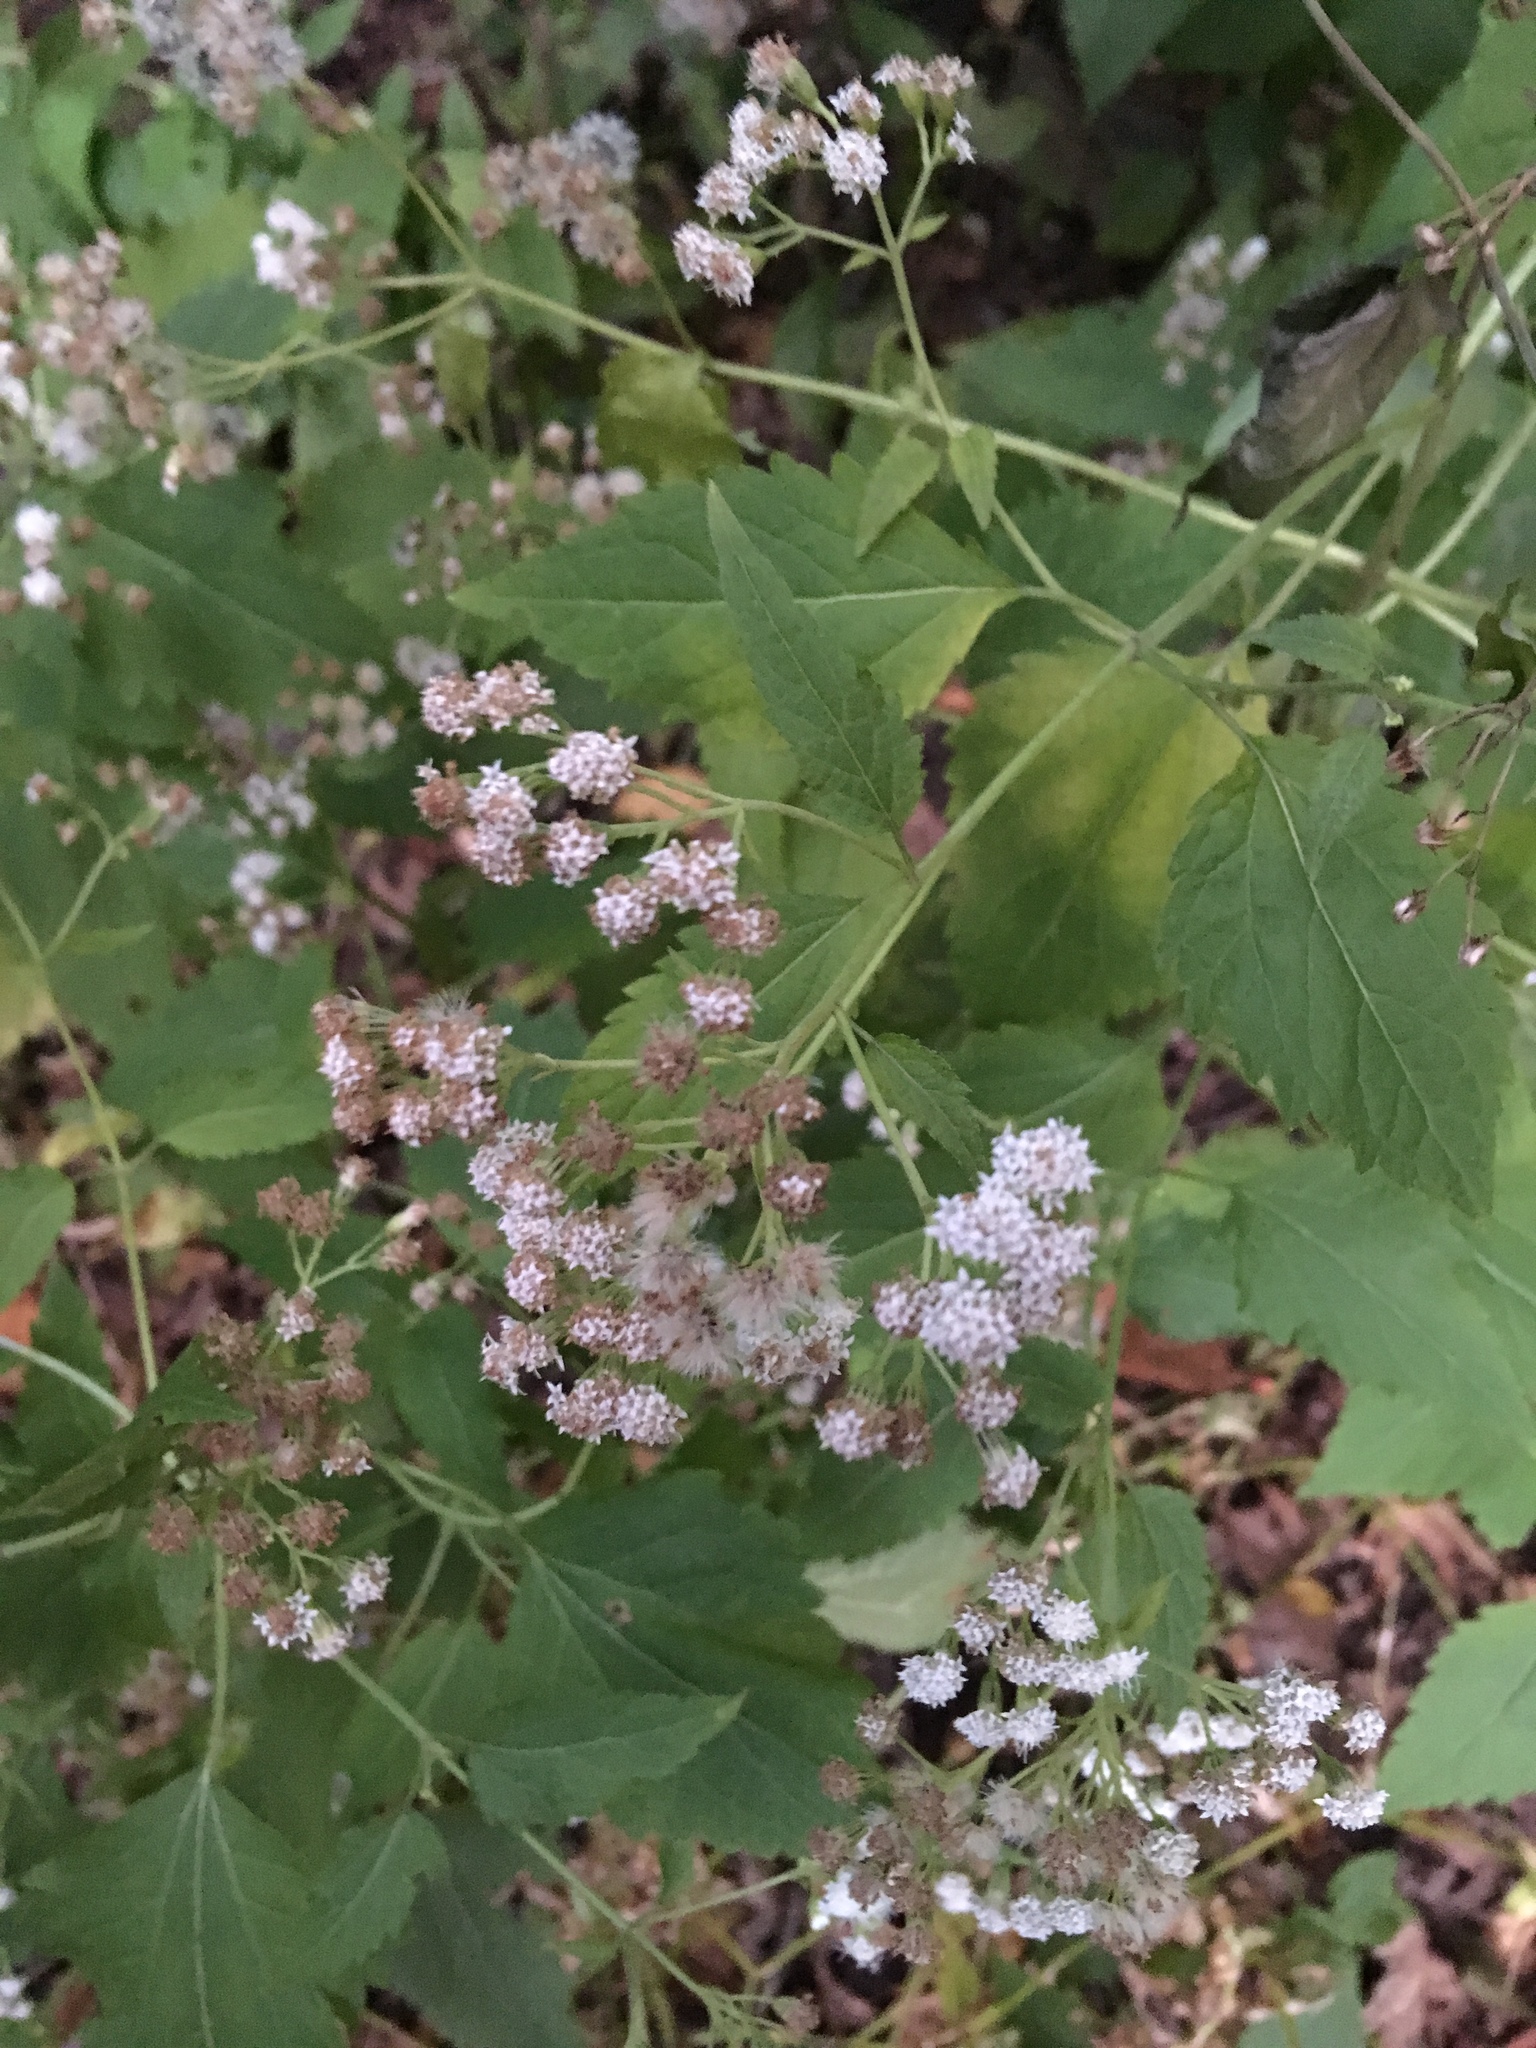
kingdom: Plantae
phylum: Tracheophyta
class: Magnoliopsida
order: Asterales
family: Asteraceae
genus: Ageratina
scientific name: Ageratina altissima
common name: White snakeroot
